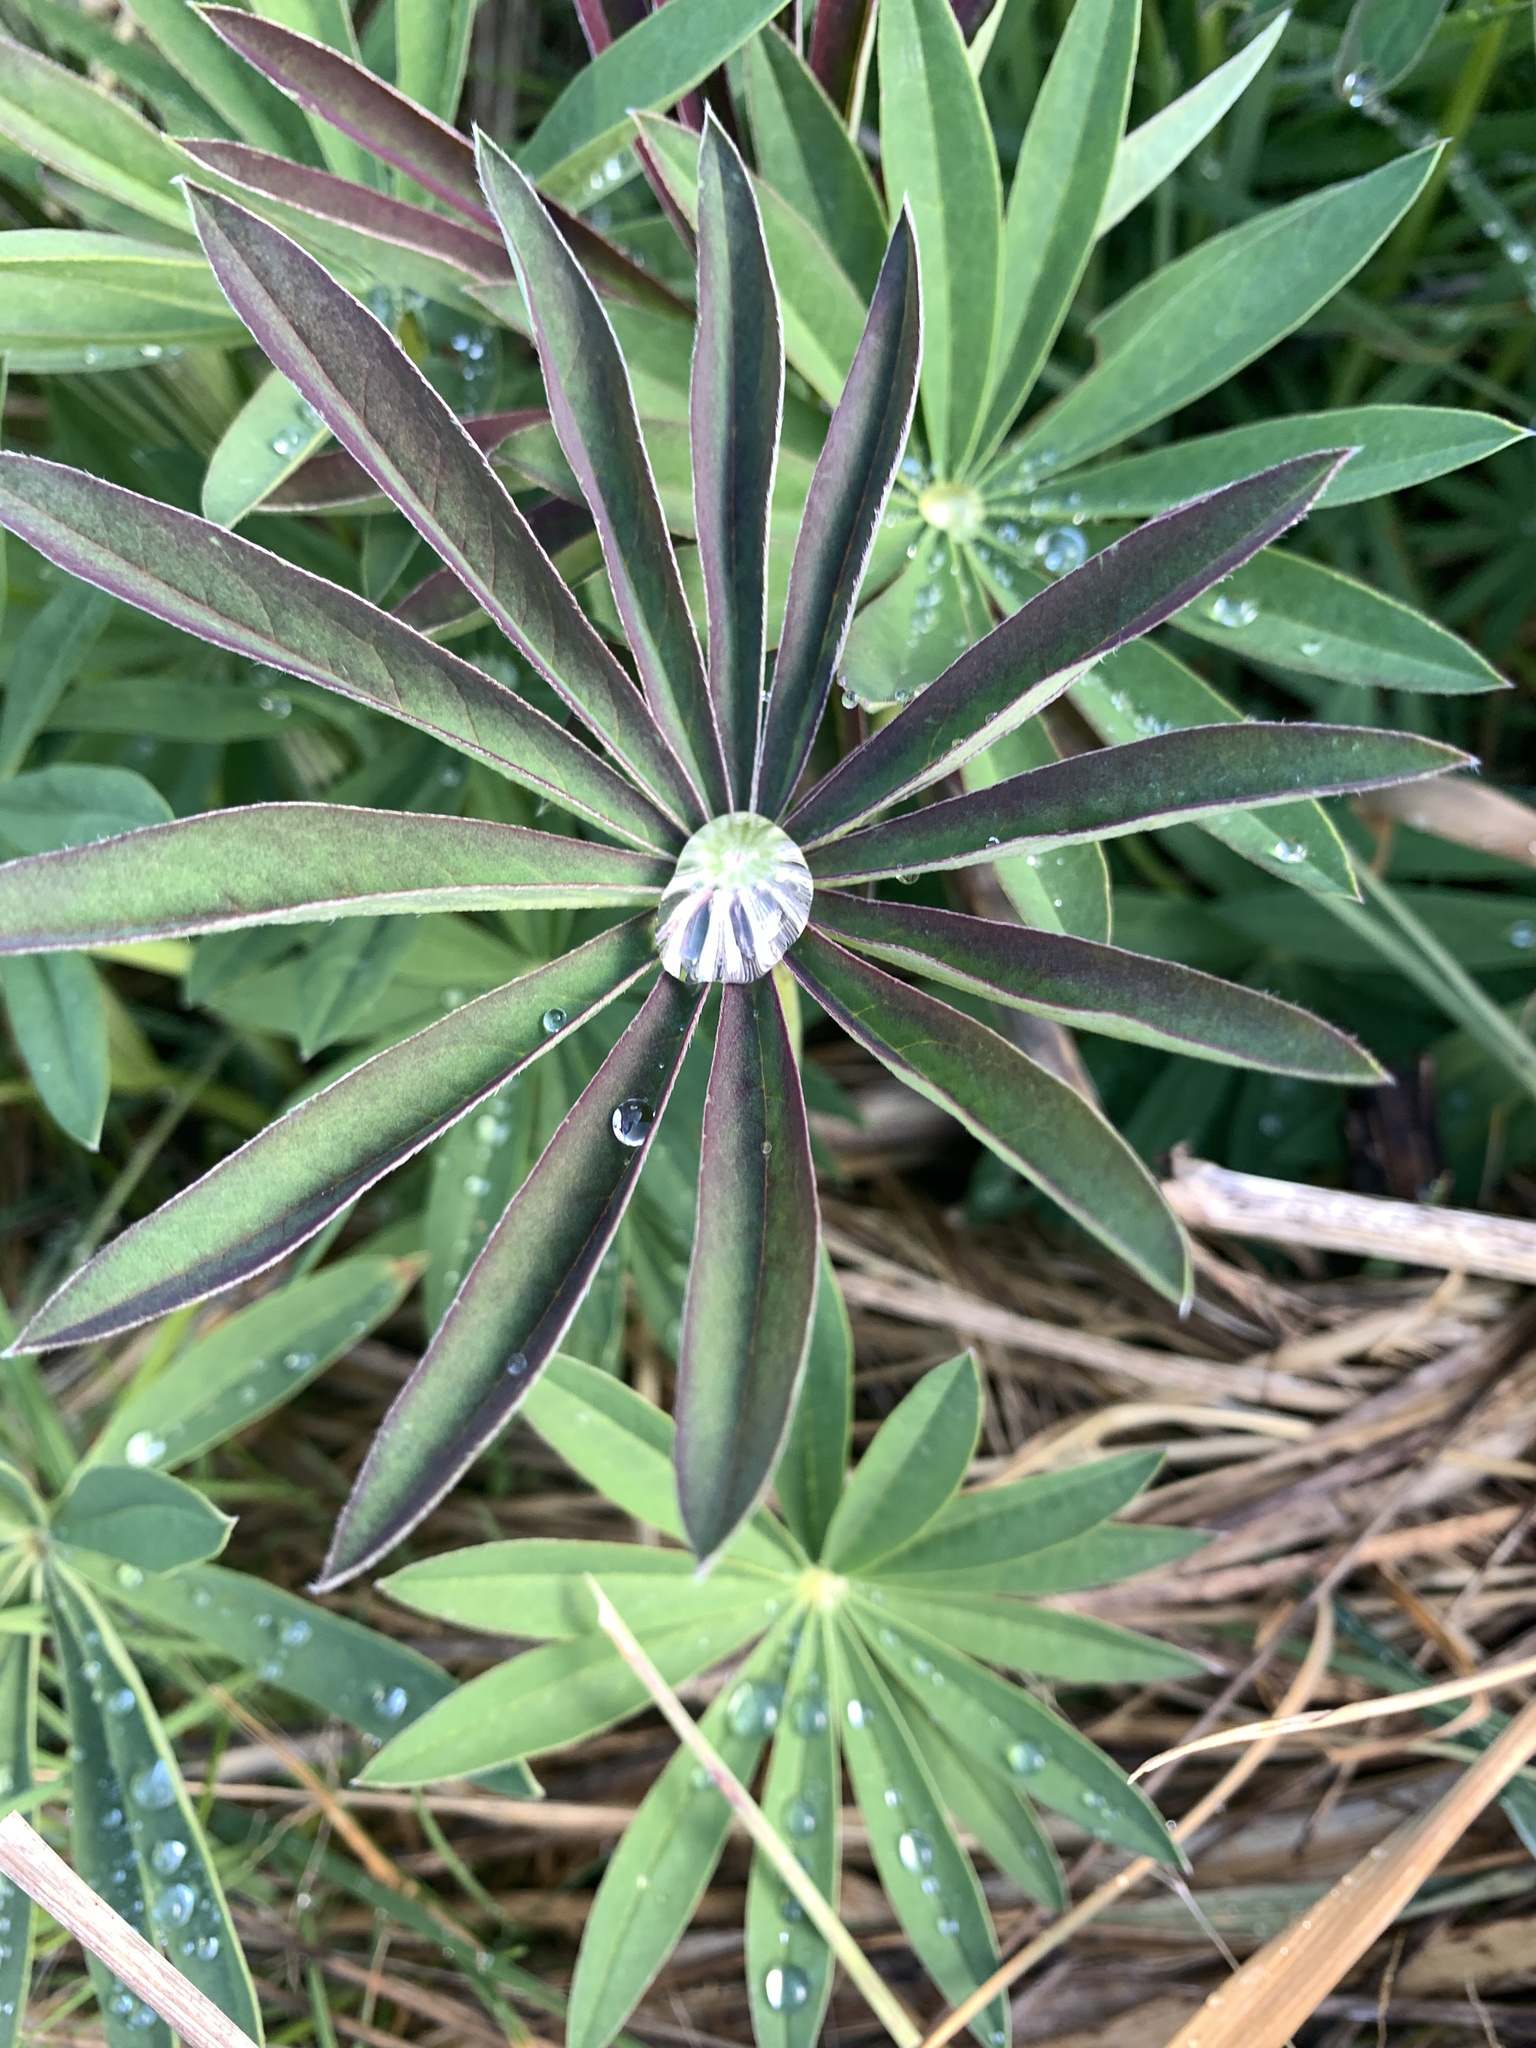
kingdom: Plantae
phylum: Tracheophyta
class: Magnoliopsida
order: Fabales
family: Fabaceae
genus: Lupinus
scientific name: Lupinus polyphyllus
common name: Garden lupin
